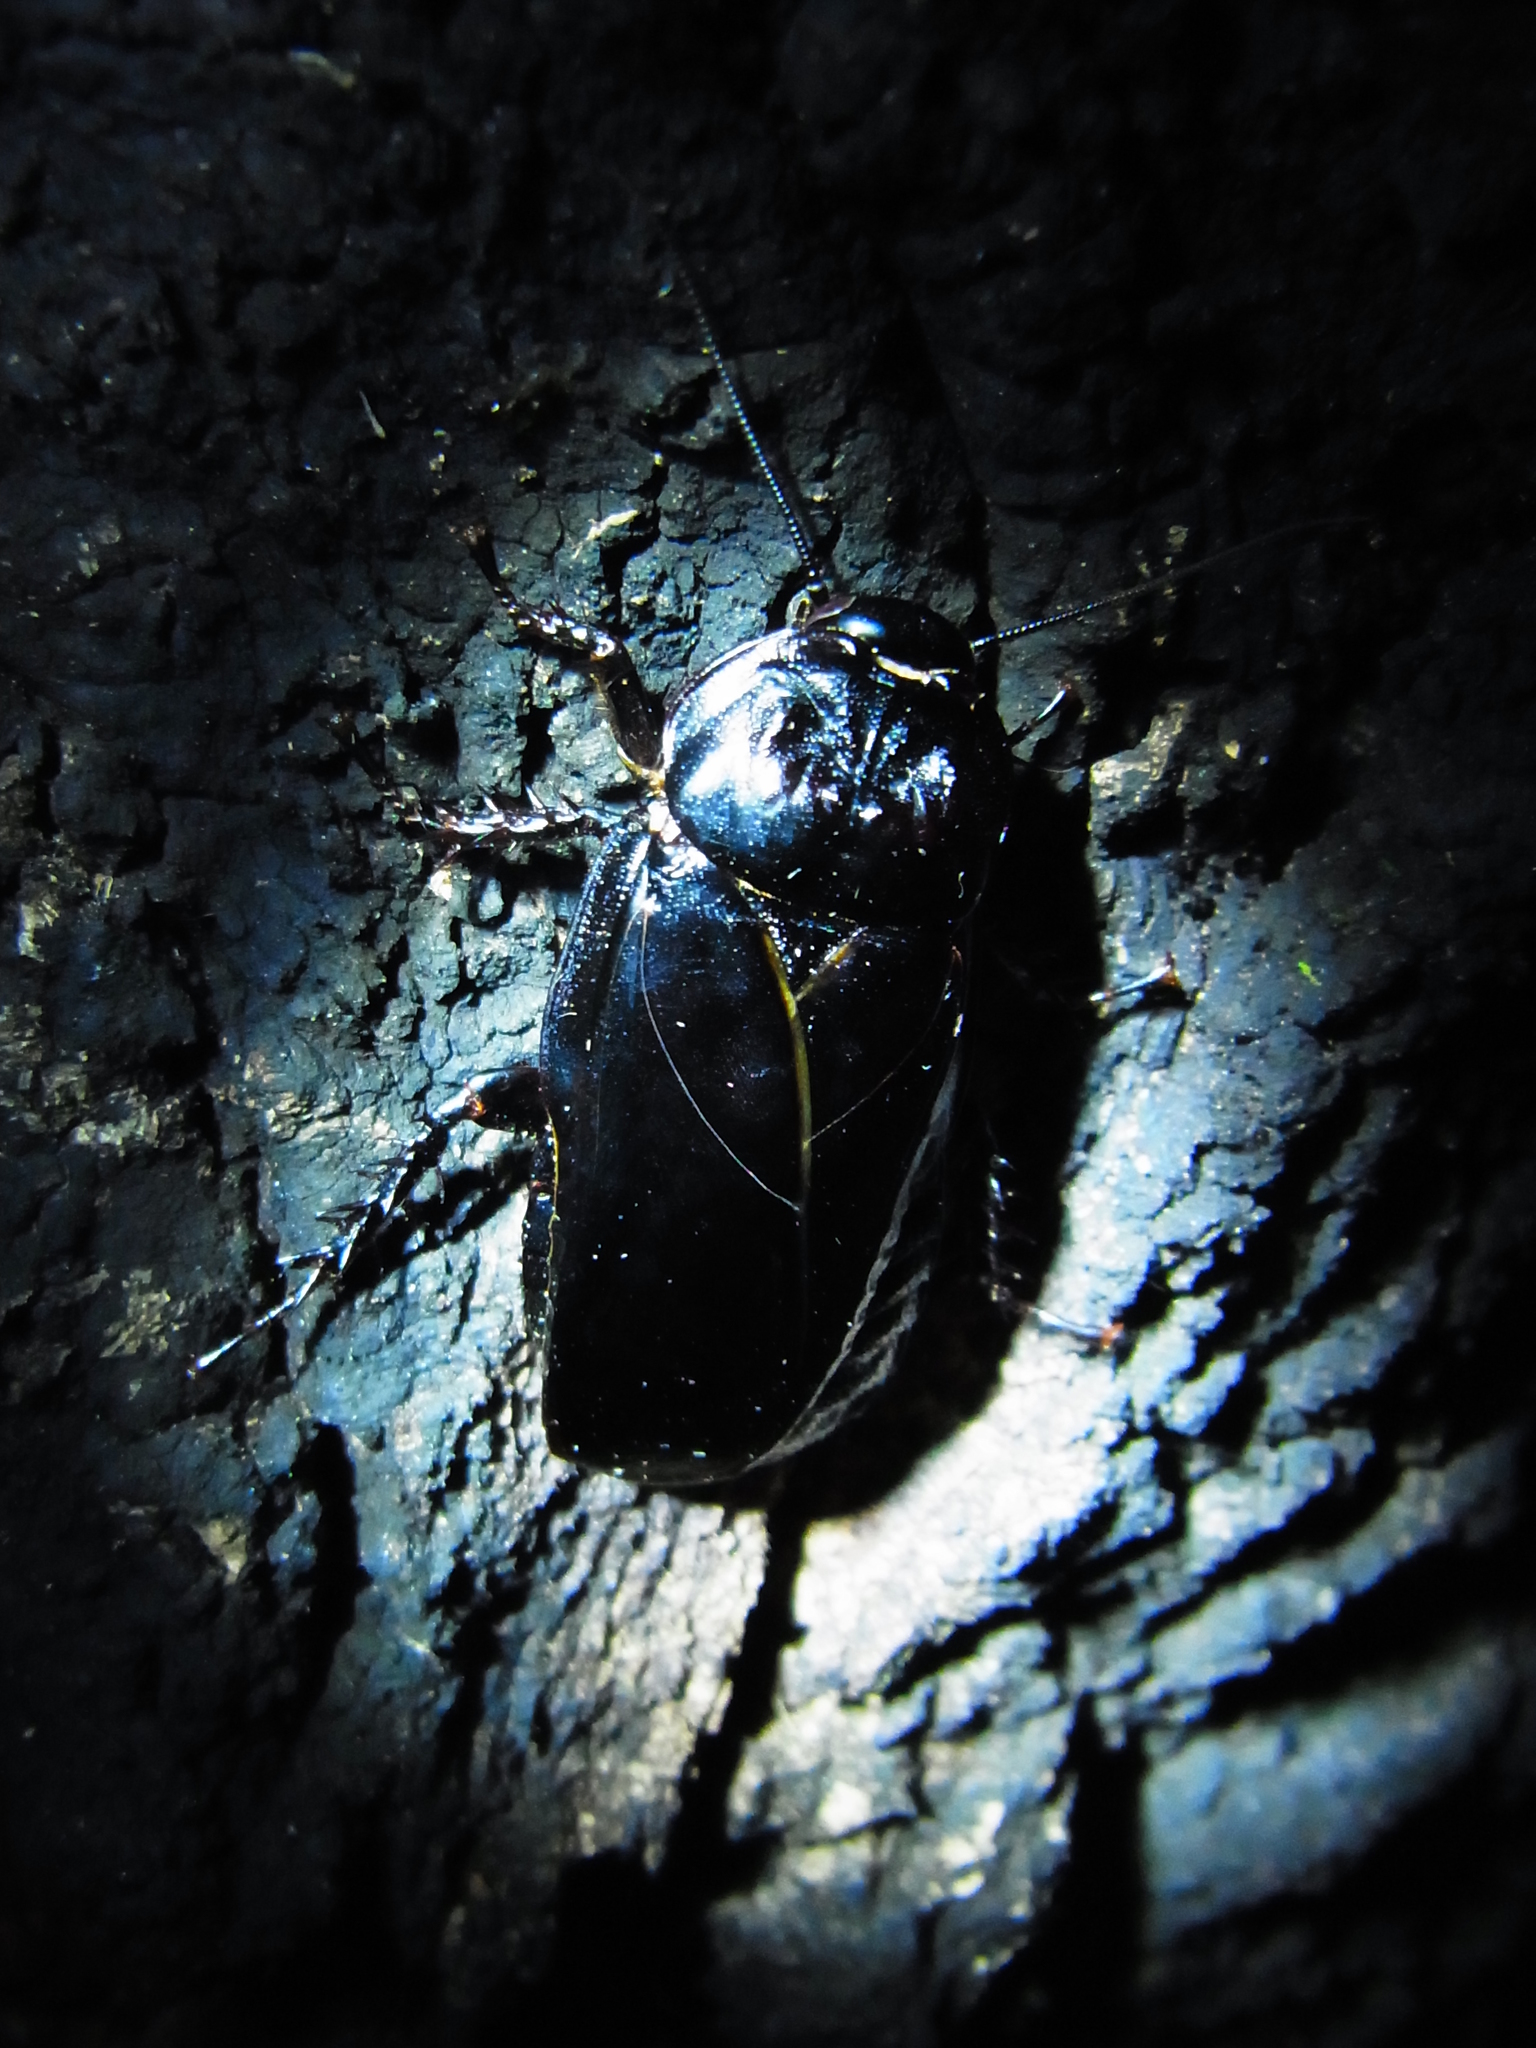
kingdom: Animalia
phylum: Arthropoda
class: Insecta
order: Blattodea
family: Blaberidae
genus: Panesthia
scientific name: Panesthia angustipennis
